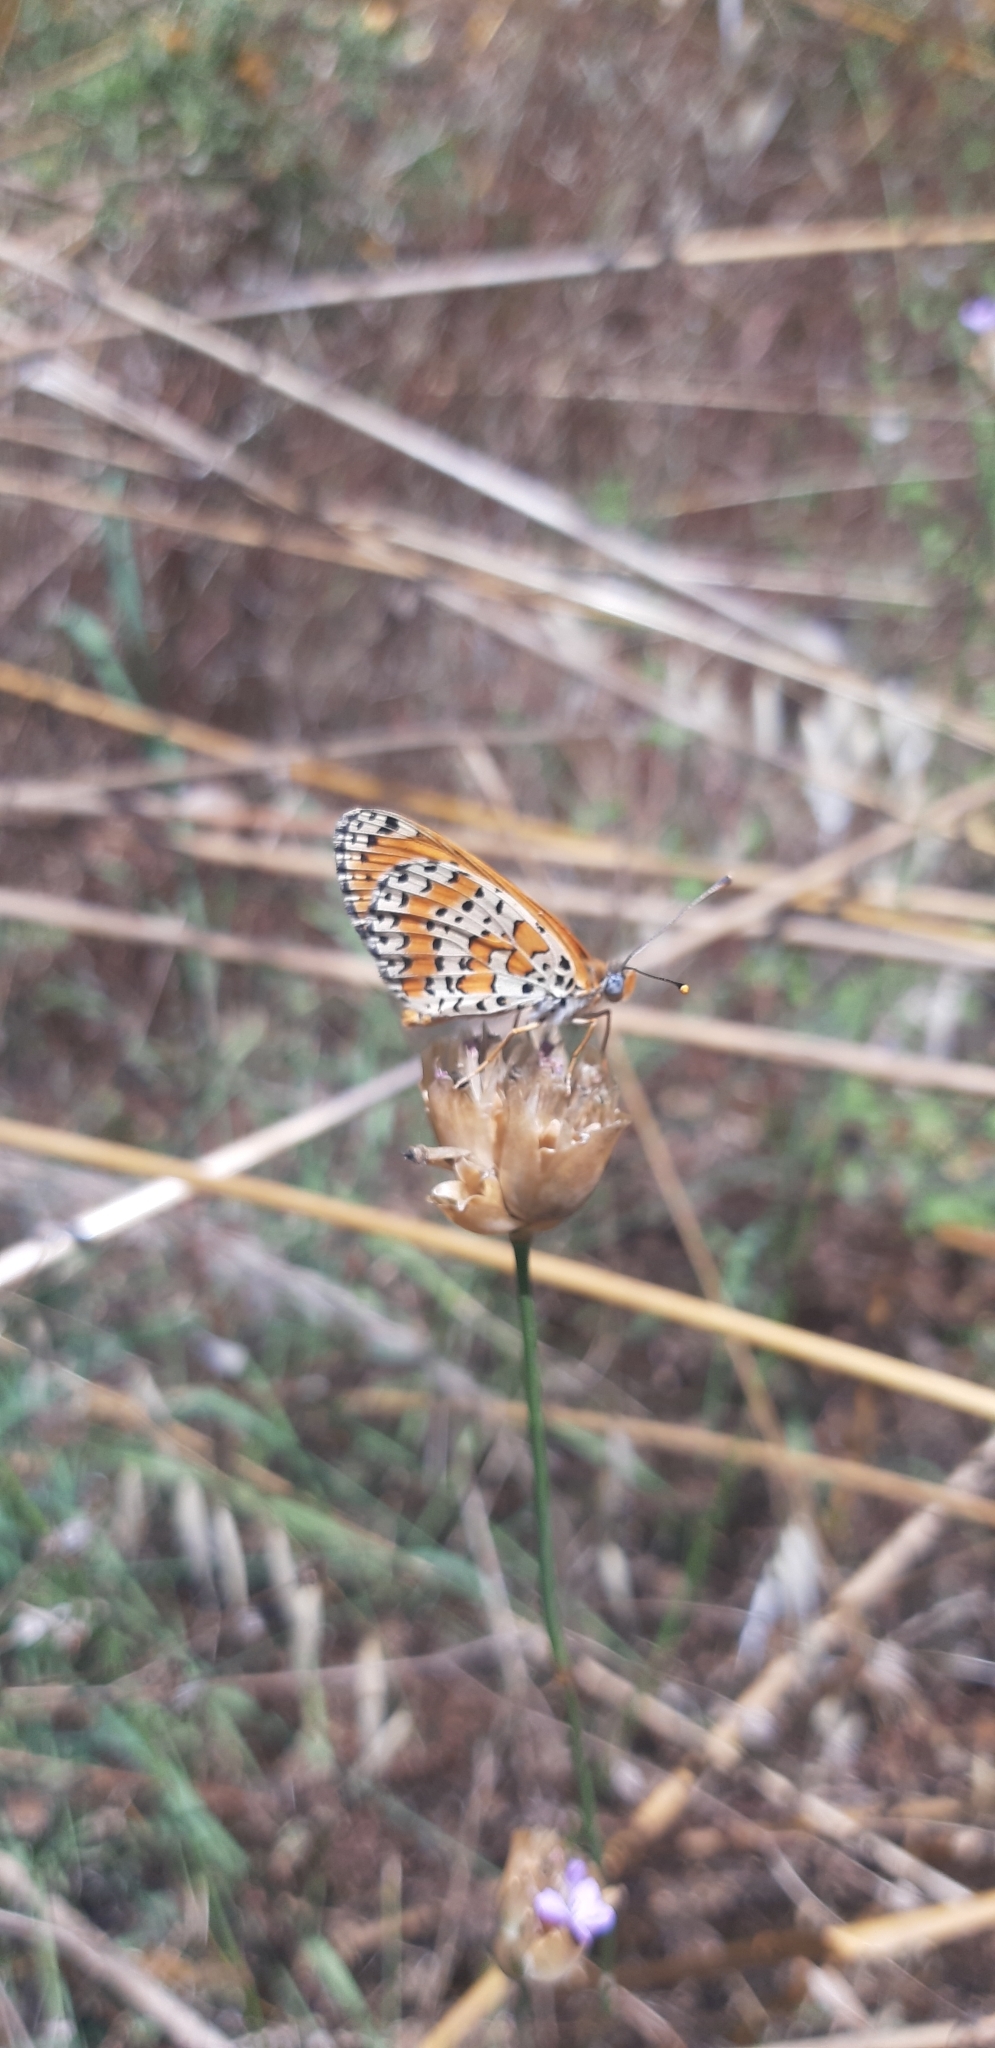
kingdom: Animalia
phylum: Arthropoda
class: Insecta
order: Lepidoptera
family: Nymphalidae
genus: Melitaea
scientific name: Melitaea didyma
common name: Spotted fritillary
